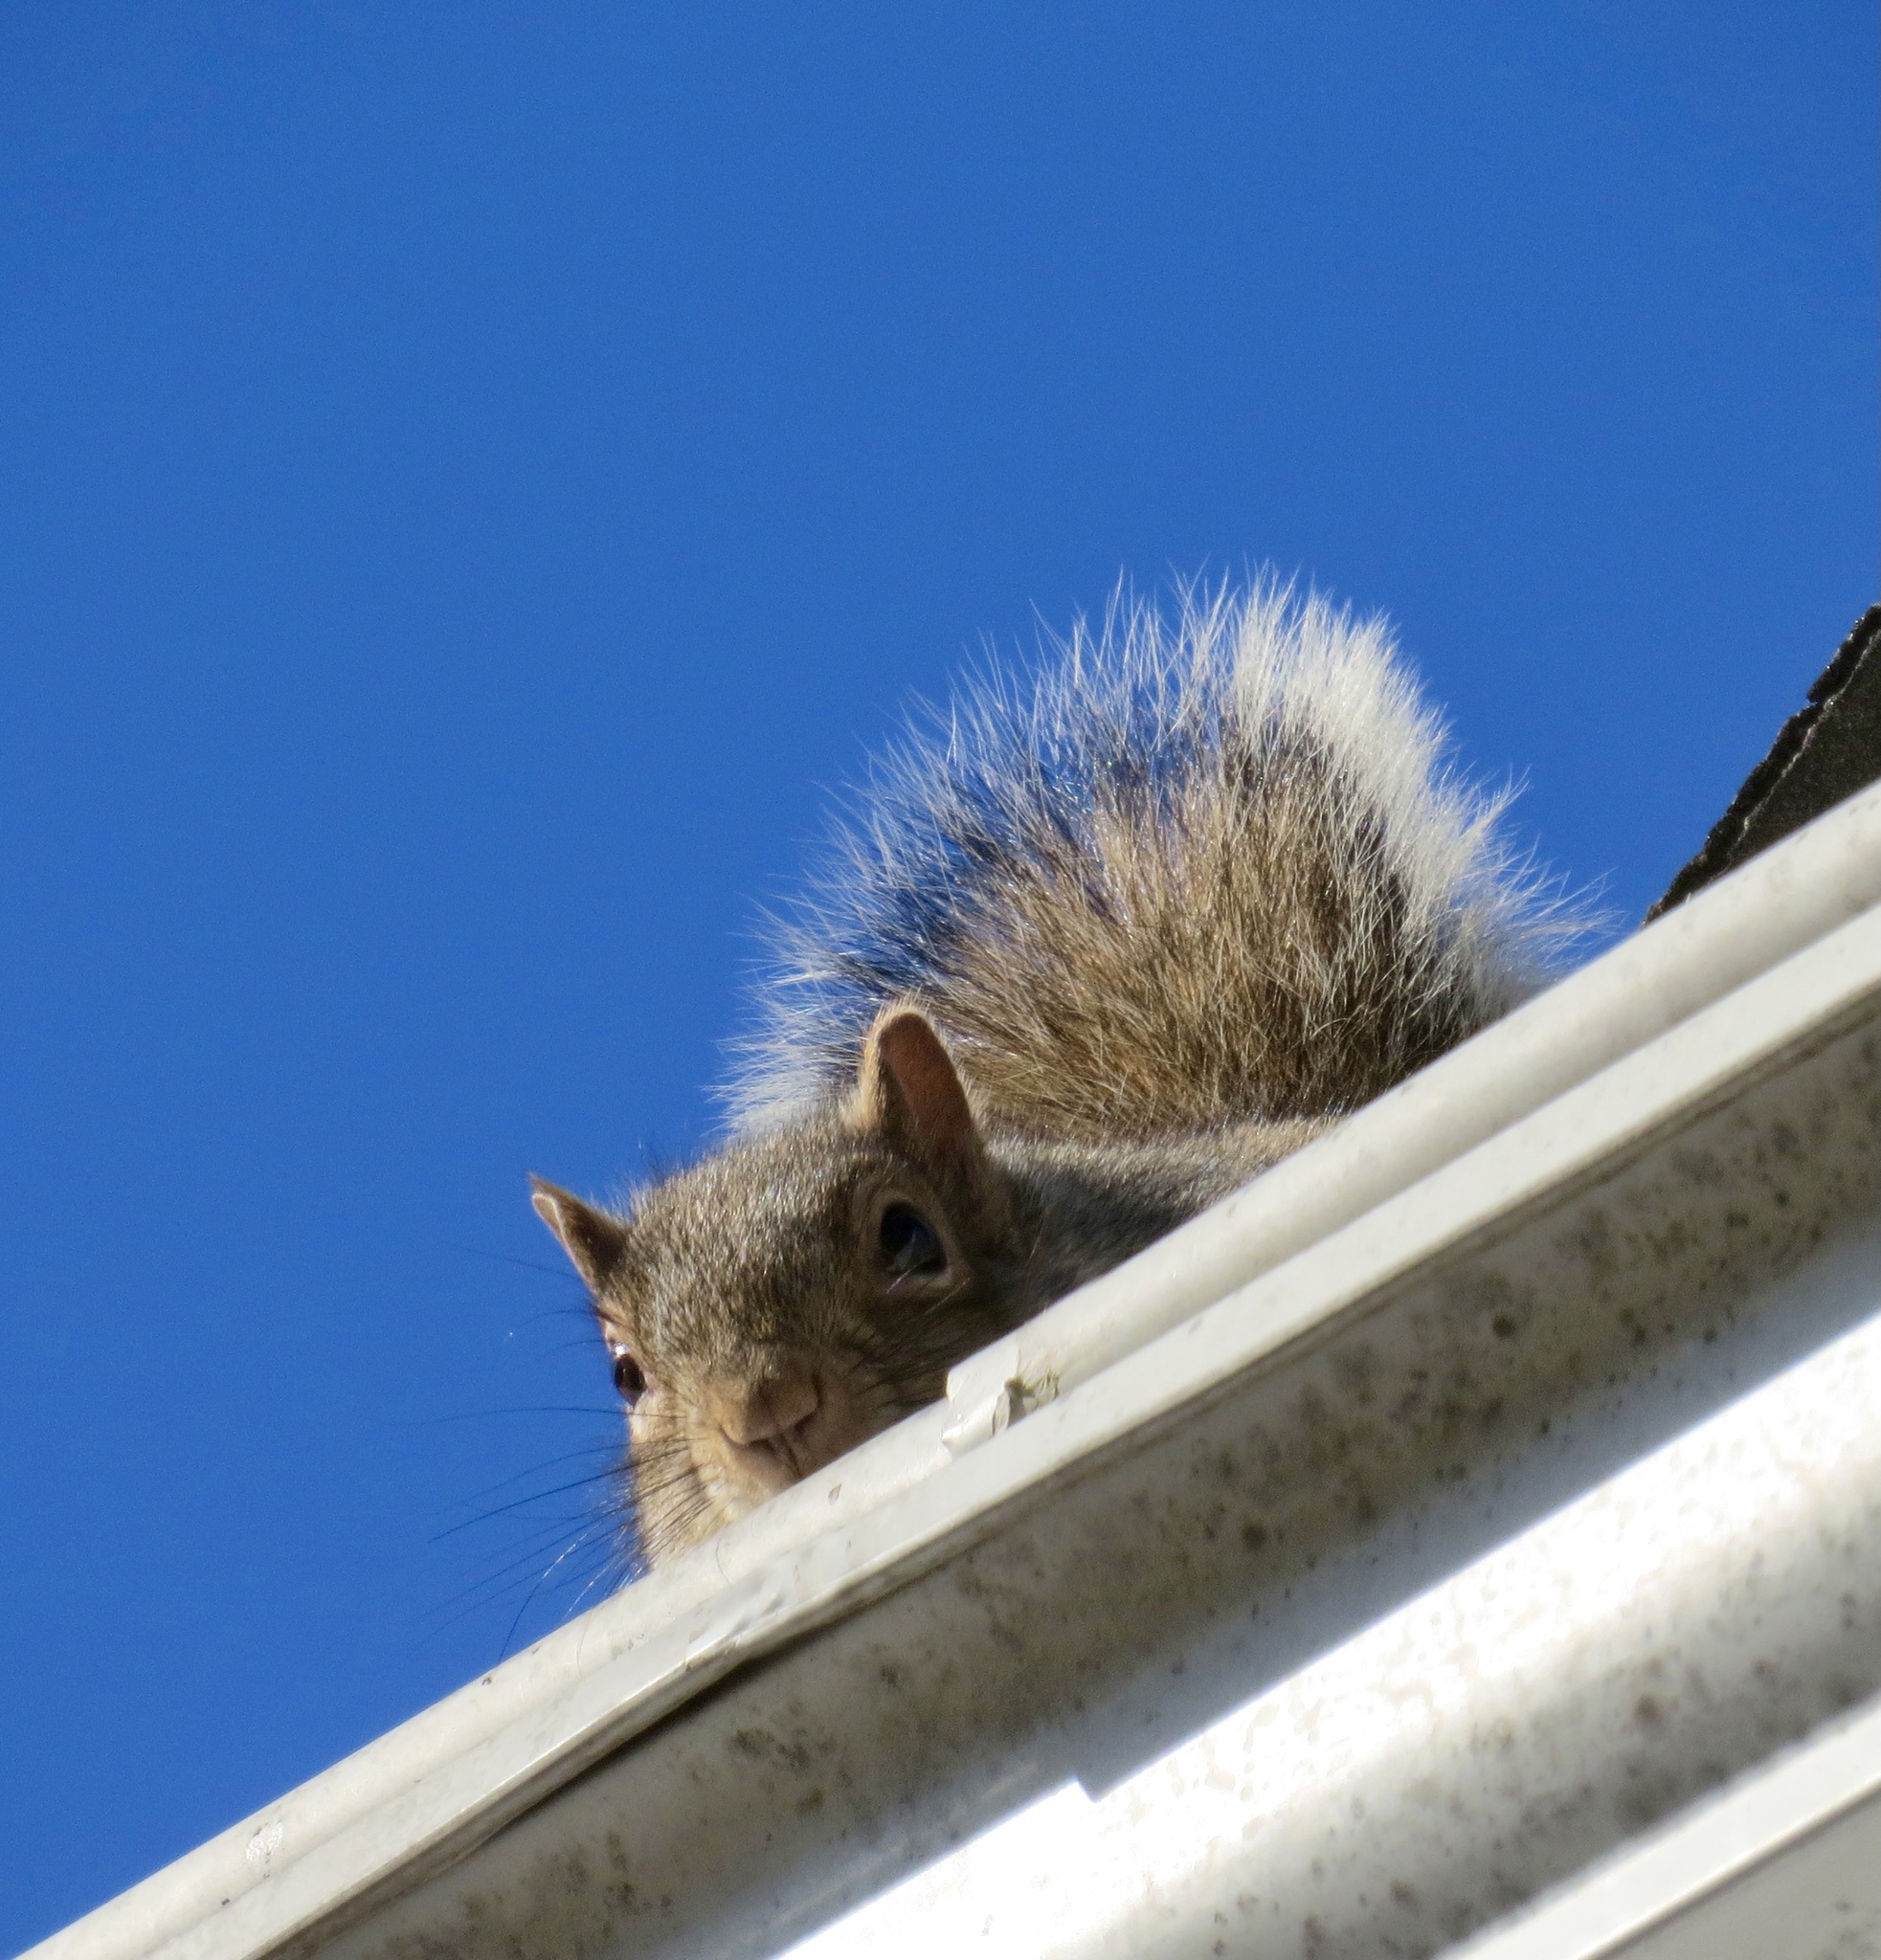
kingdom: Animalia
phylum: Chordata
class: Mammalia
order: Rodentia
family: Sciuridae
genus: Sciurus
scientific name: Sciurus carolinensis
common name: Eastern gray squirrel
